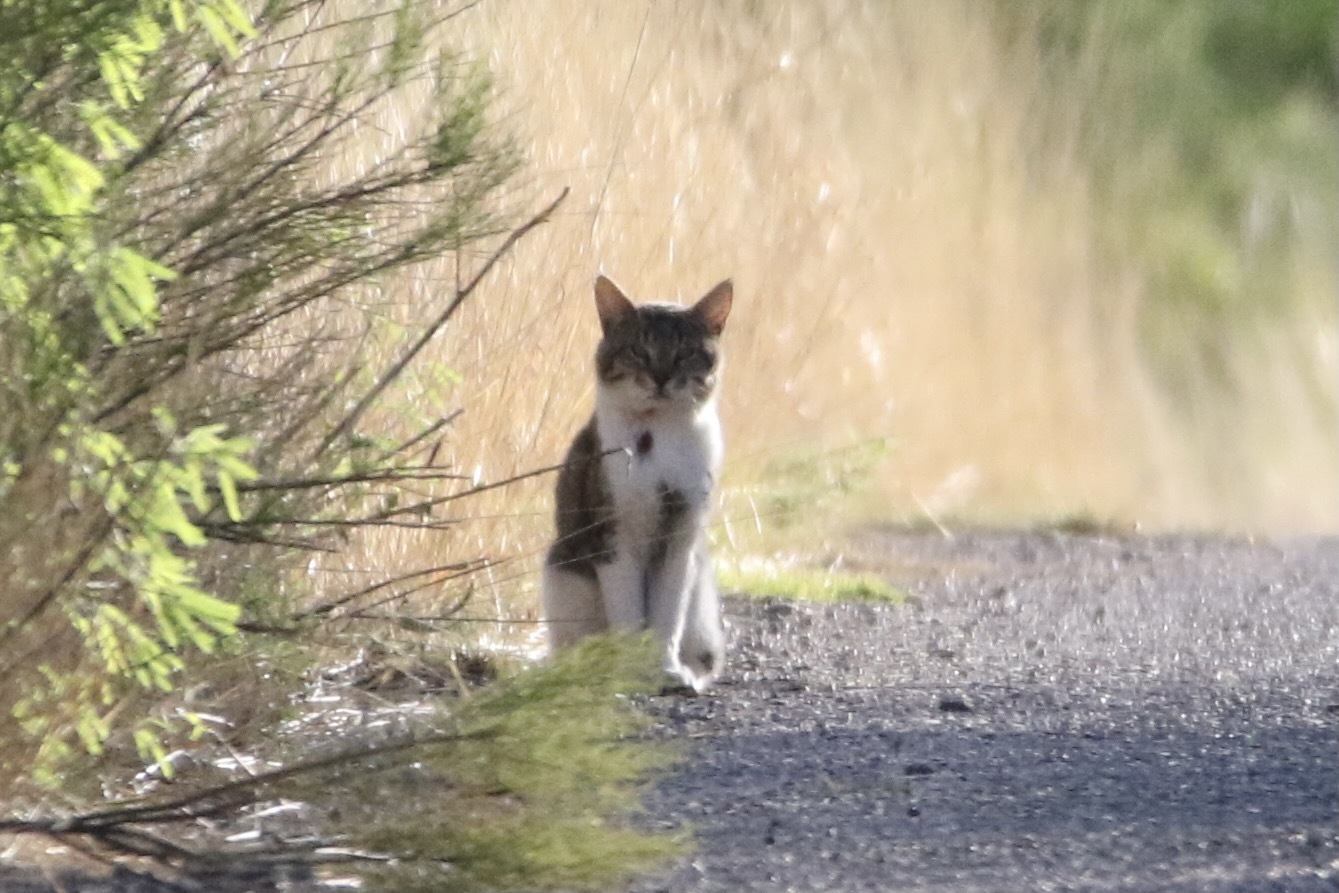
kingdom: Animalia
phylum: Chordata
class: Mammalia
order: Carnivora
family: Felidae
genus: Felis
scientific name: Felis catus
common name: Domestic cat
